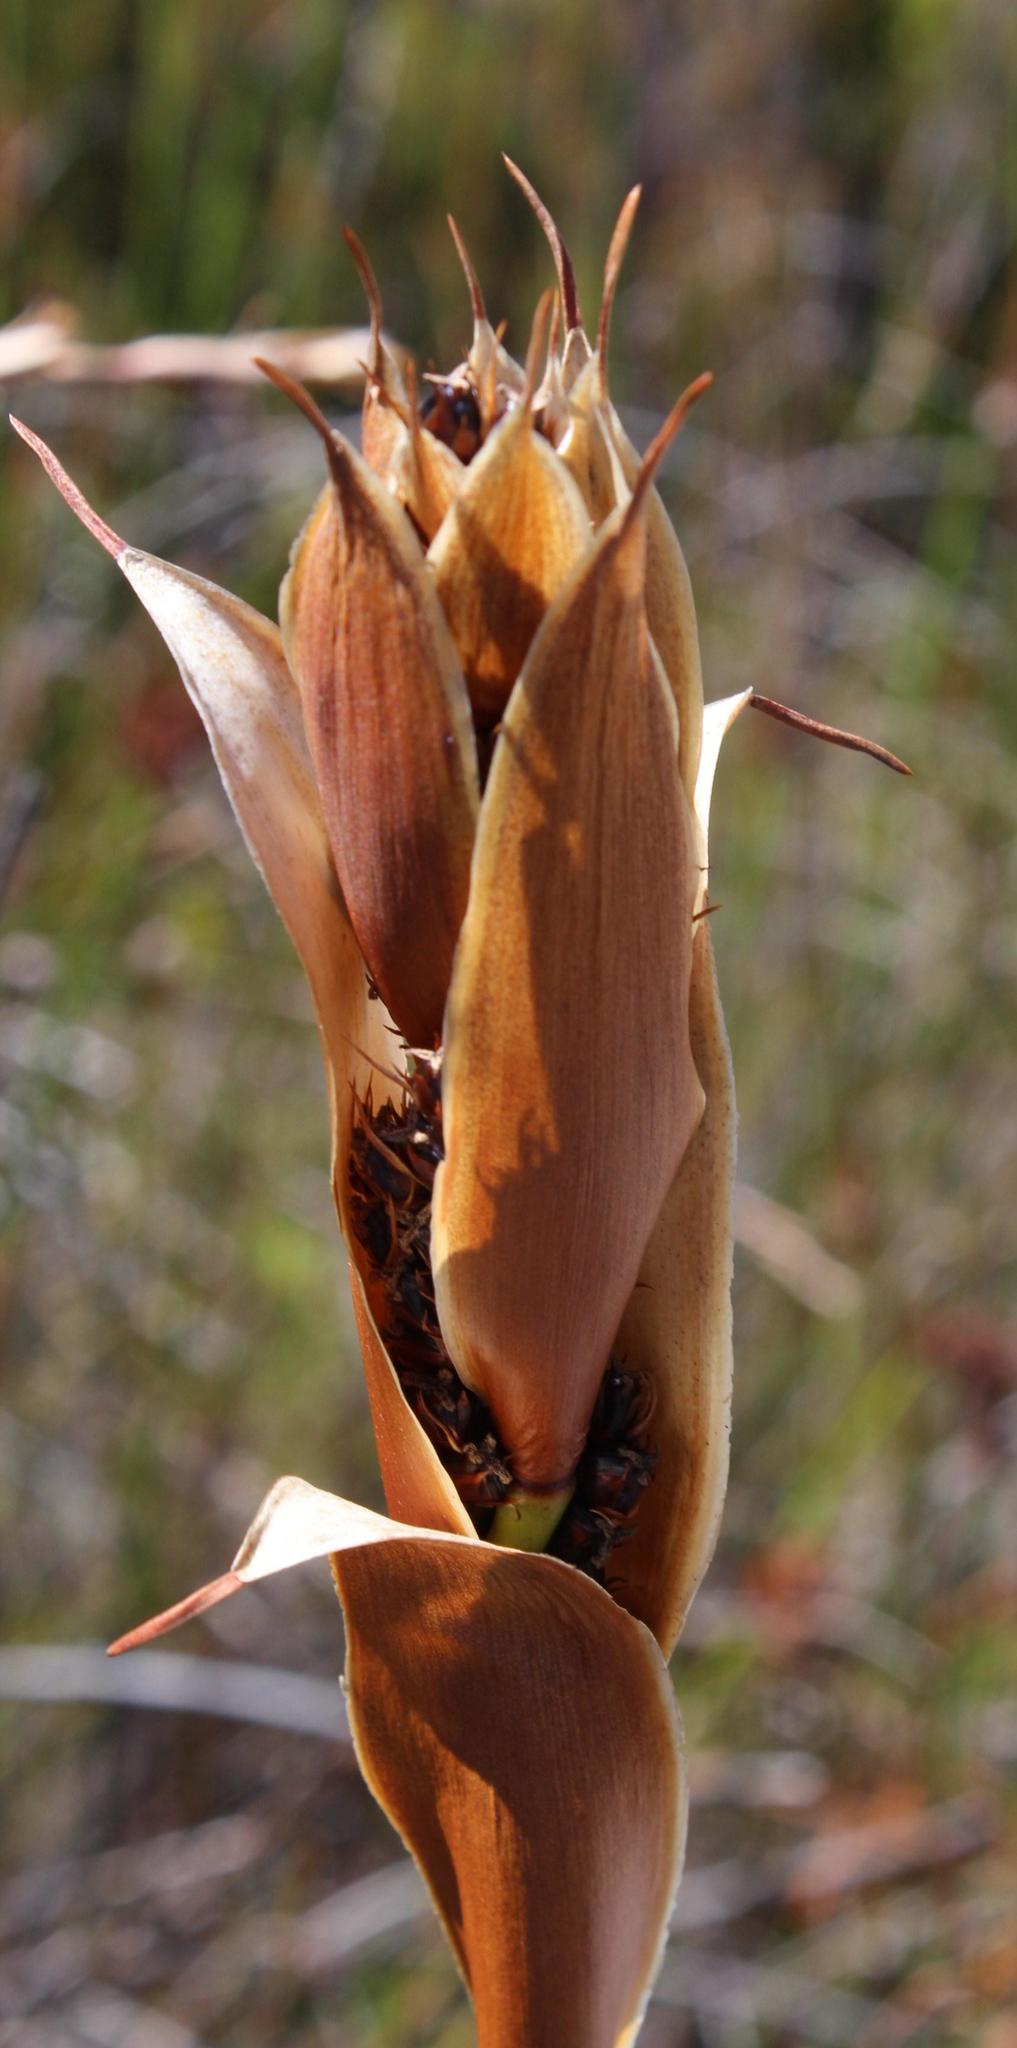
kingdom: Plantae
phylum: Tracheophyta
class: Liliopsida
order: Poales
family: Restionaceae
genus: Elegia
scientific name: Elegia mucronata
